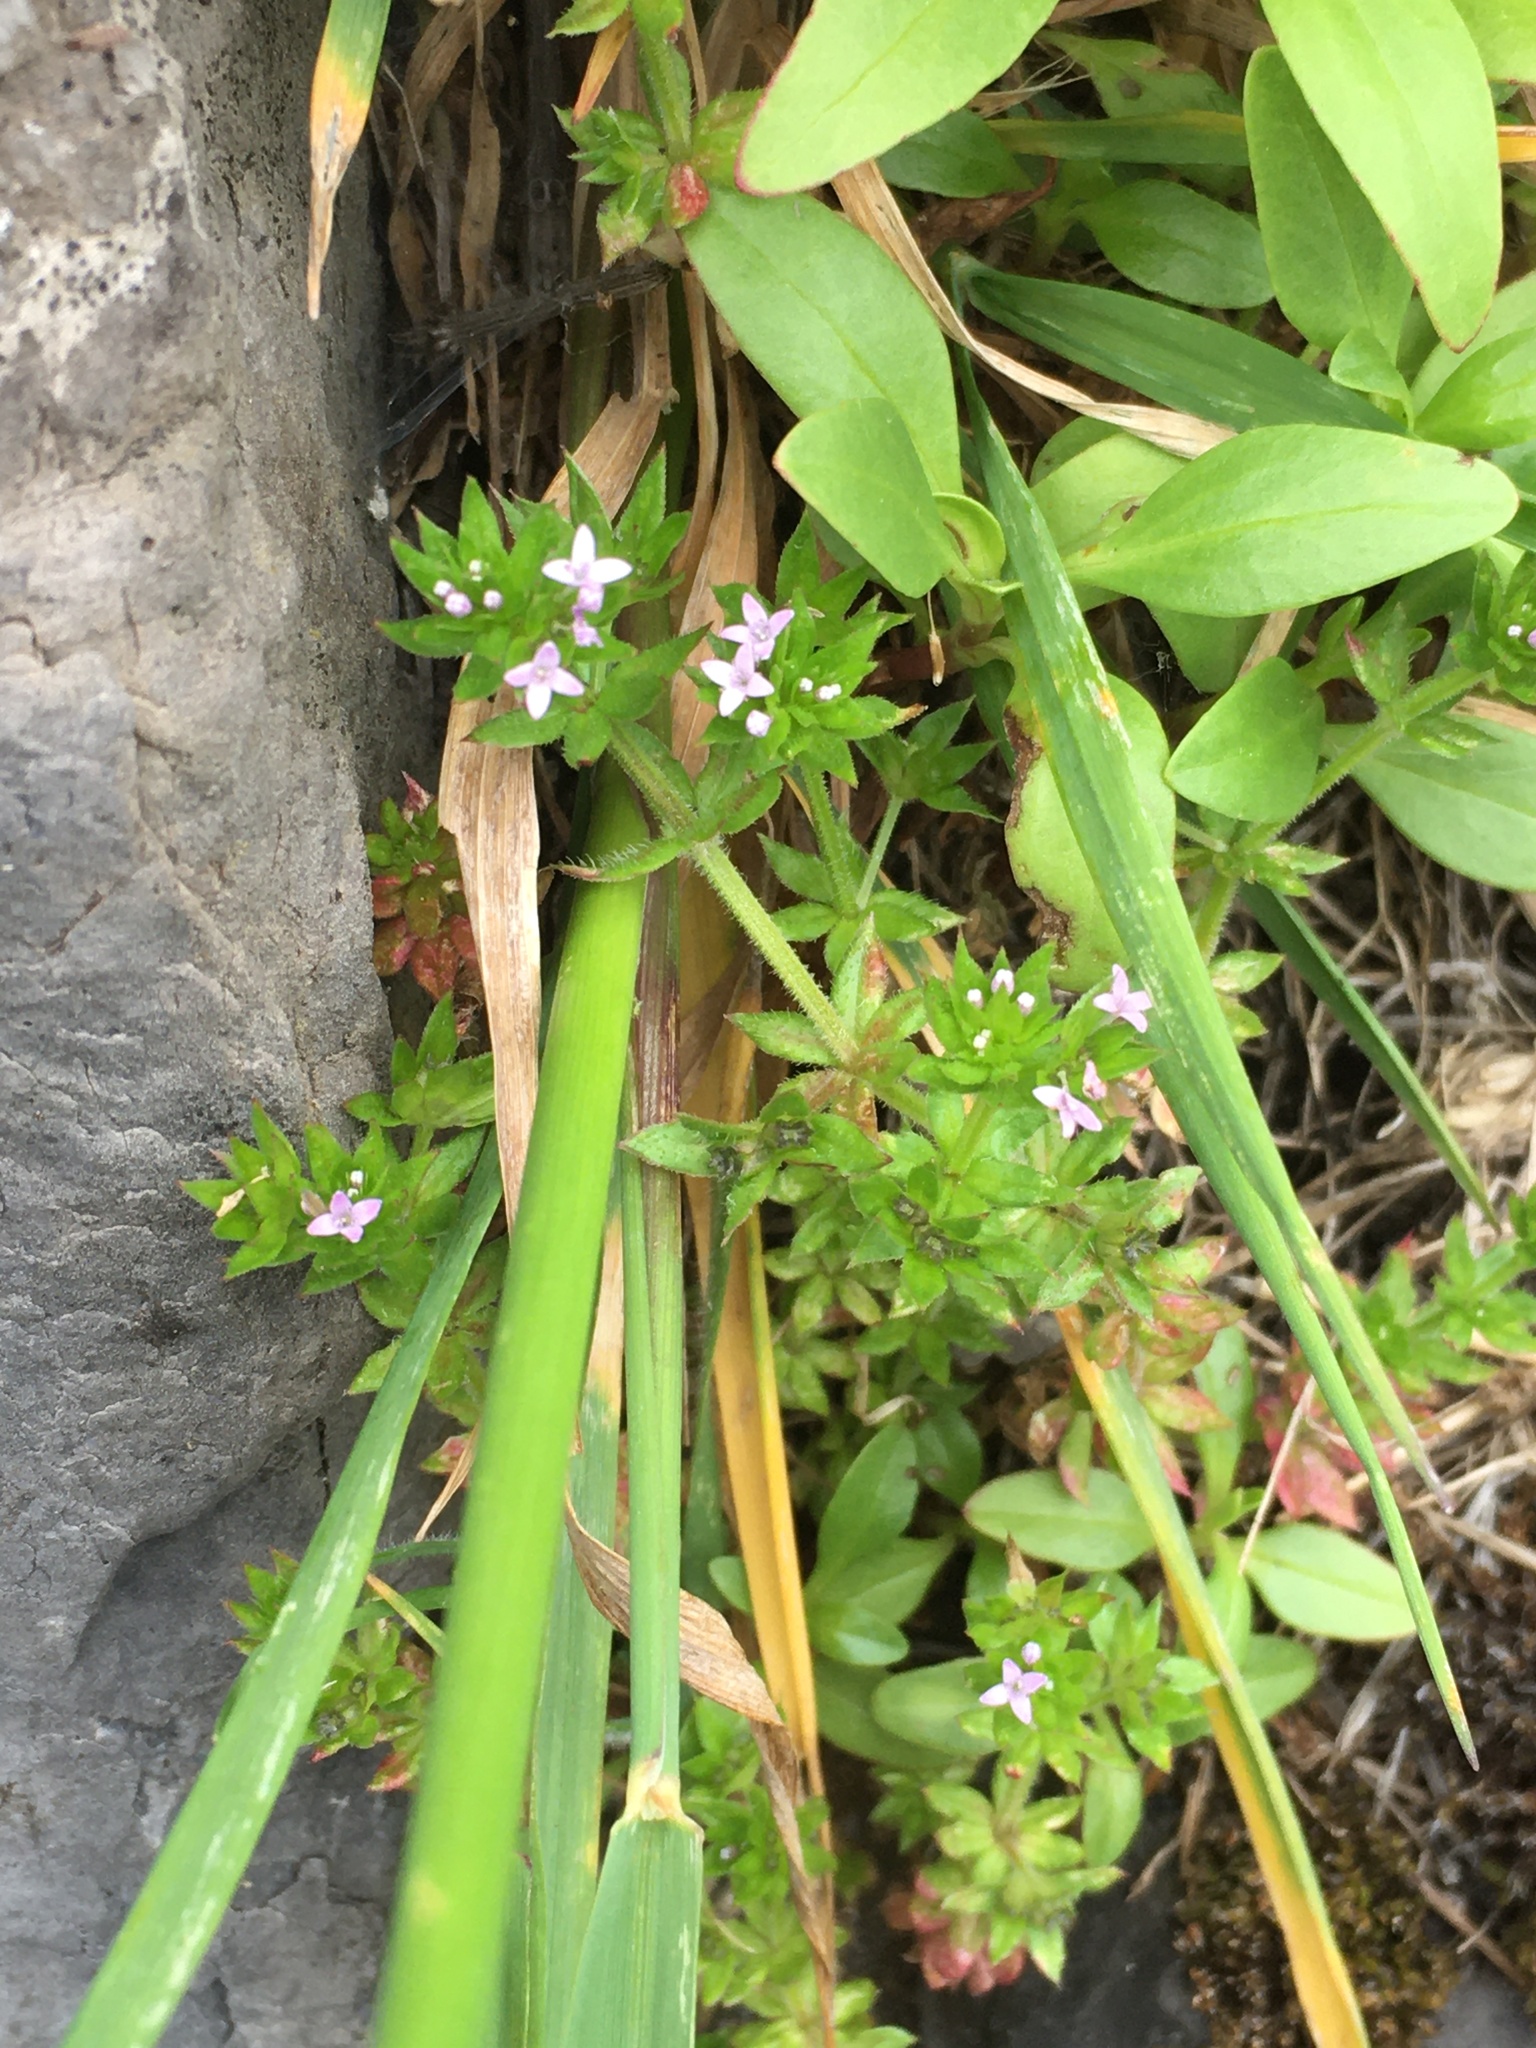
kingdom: Plantae
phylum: Tracheophyta
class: Magnoliopsida
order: Gentianales
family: Rubiaceae
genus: Sherardia
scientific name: Sherardia arvensis
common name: Field madder
